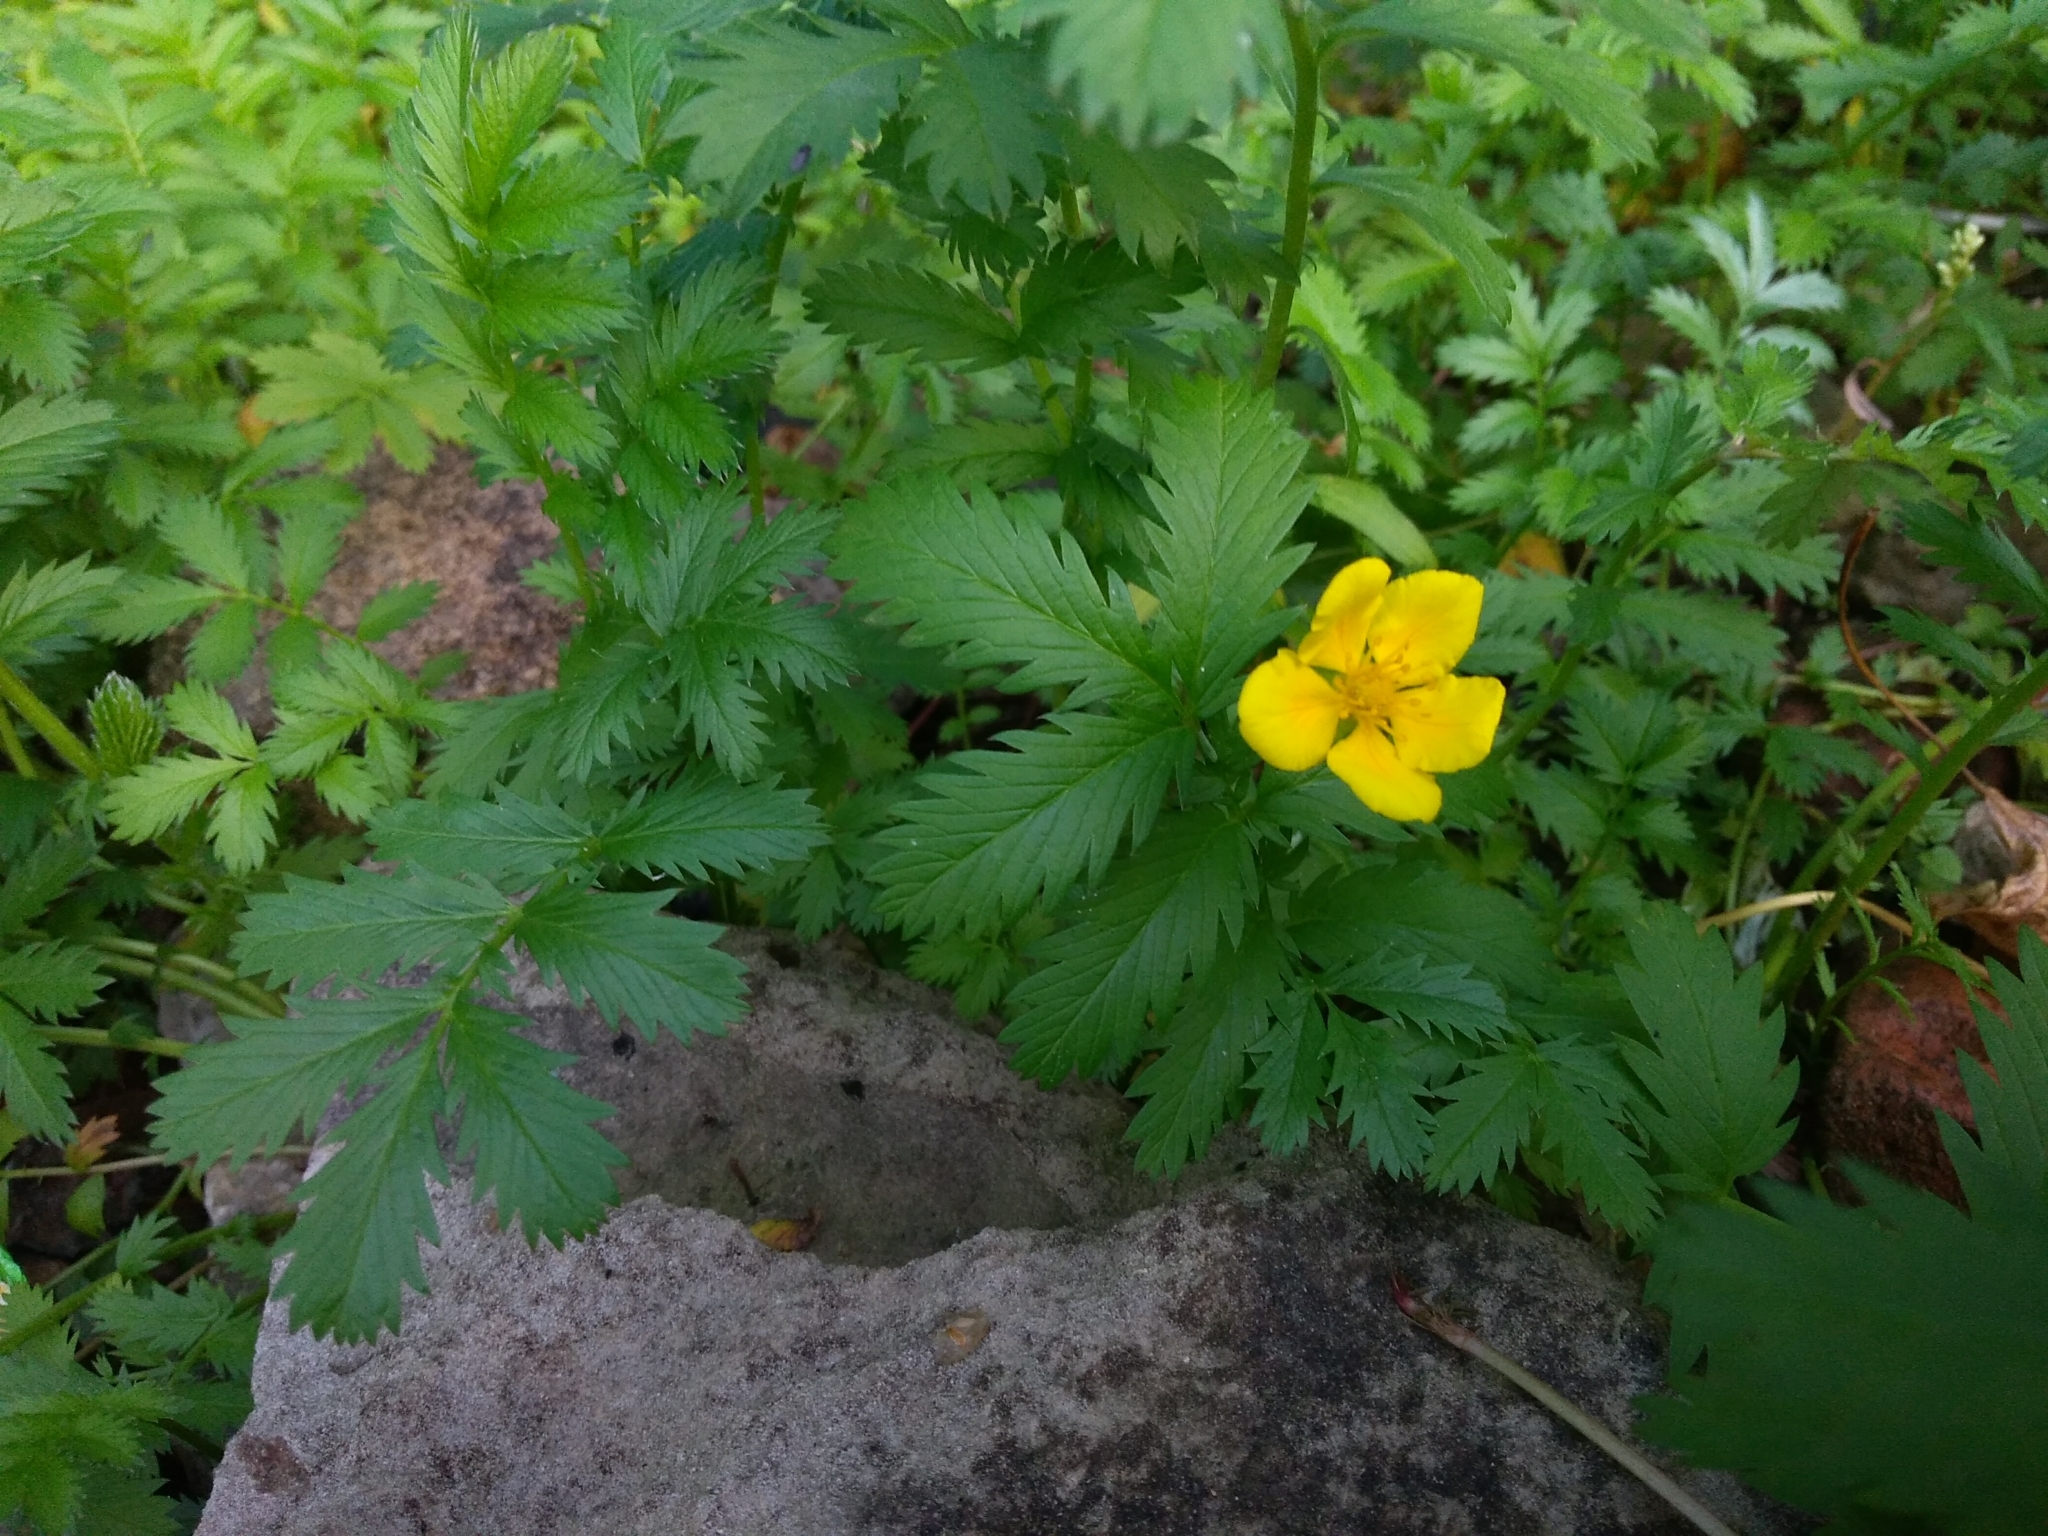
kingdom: Plantae
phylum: Tracheophyta
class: Magnoliopsida
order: Rosales
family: Rosaceae
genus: Argentina
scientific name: Argentina anserina
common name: Common silverweed
